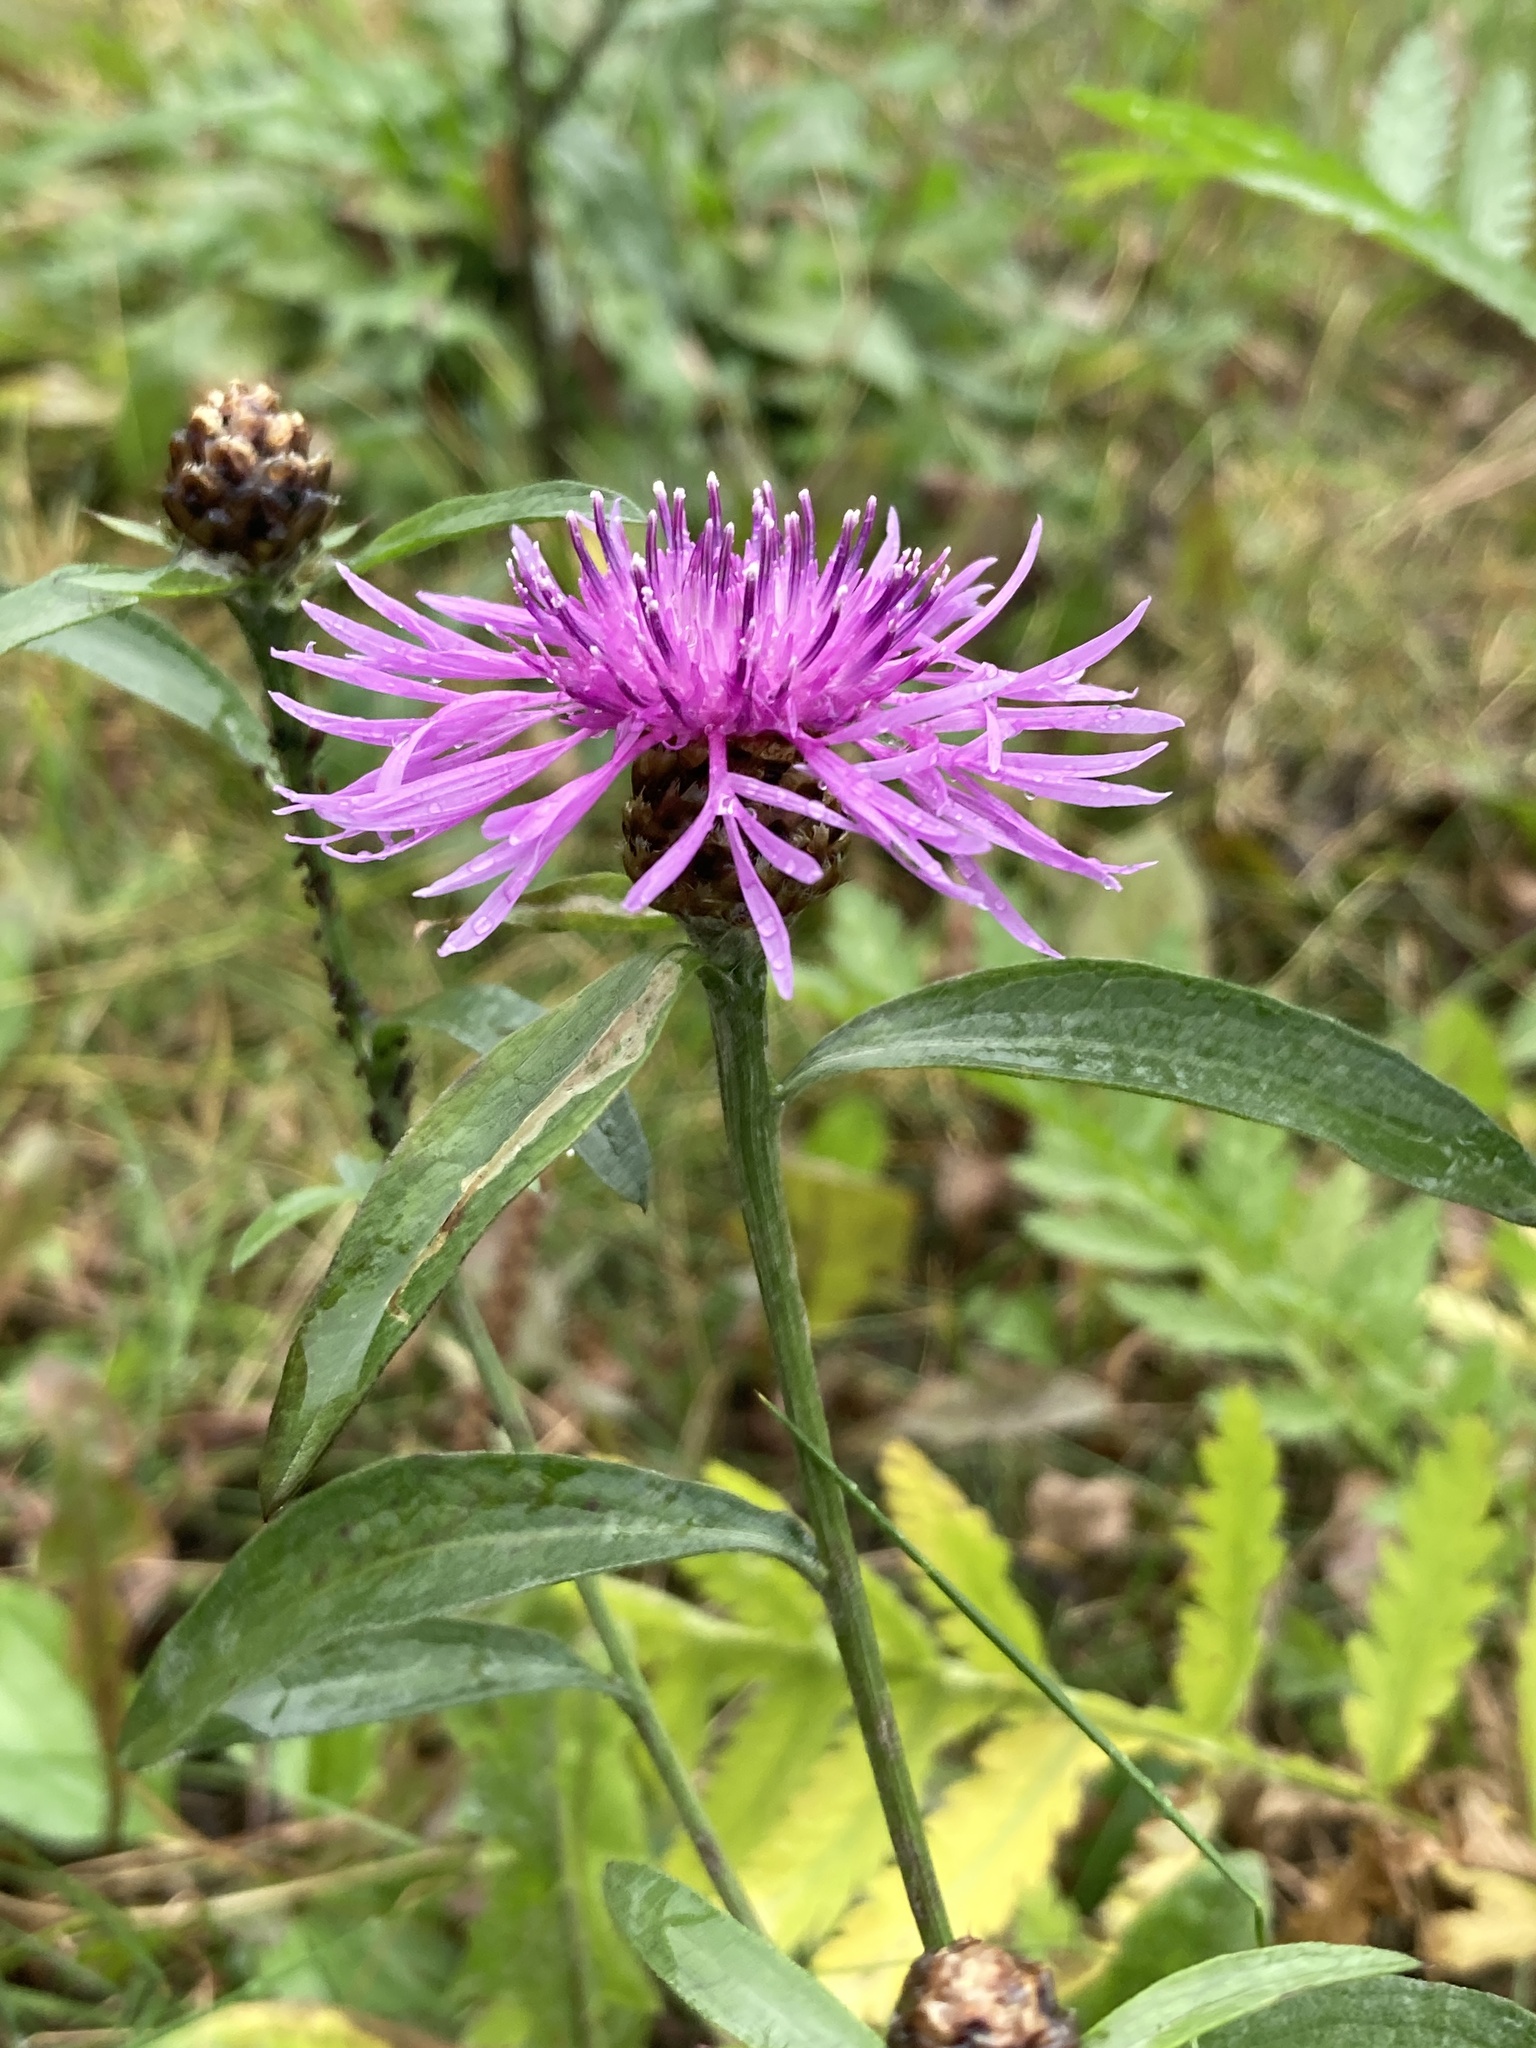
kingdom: Plantae
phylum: Tracheophyta
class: Magnoliopsida
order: Asterales
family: Asteraceae
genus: Centaurea
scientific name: Centaurea jacea
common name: Brown knapweed
